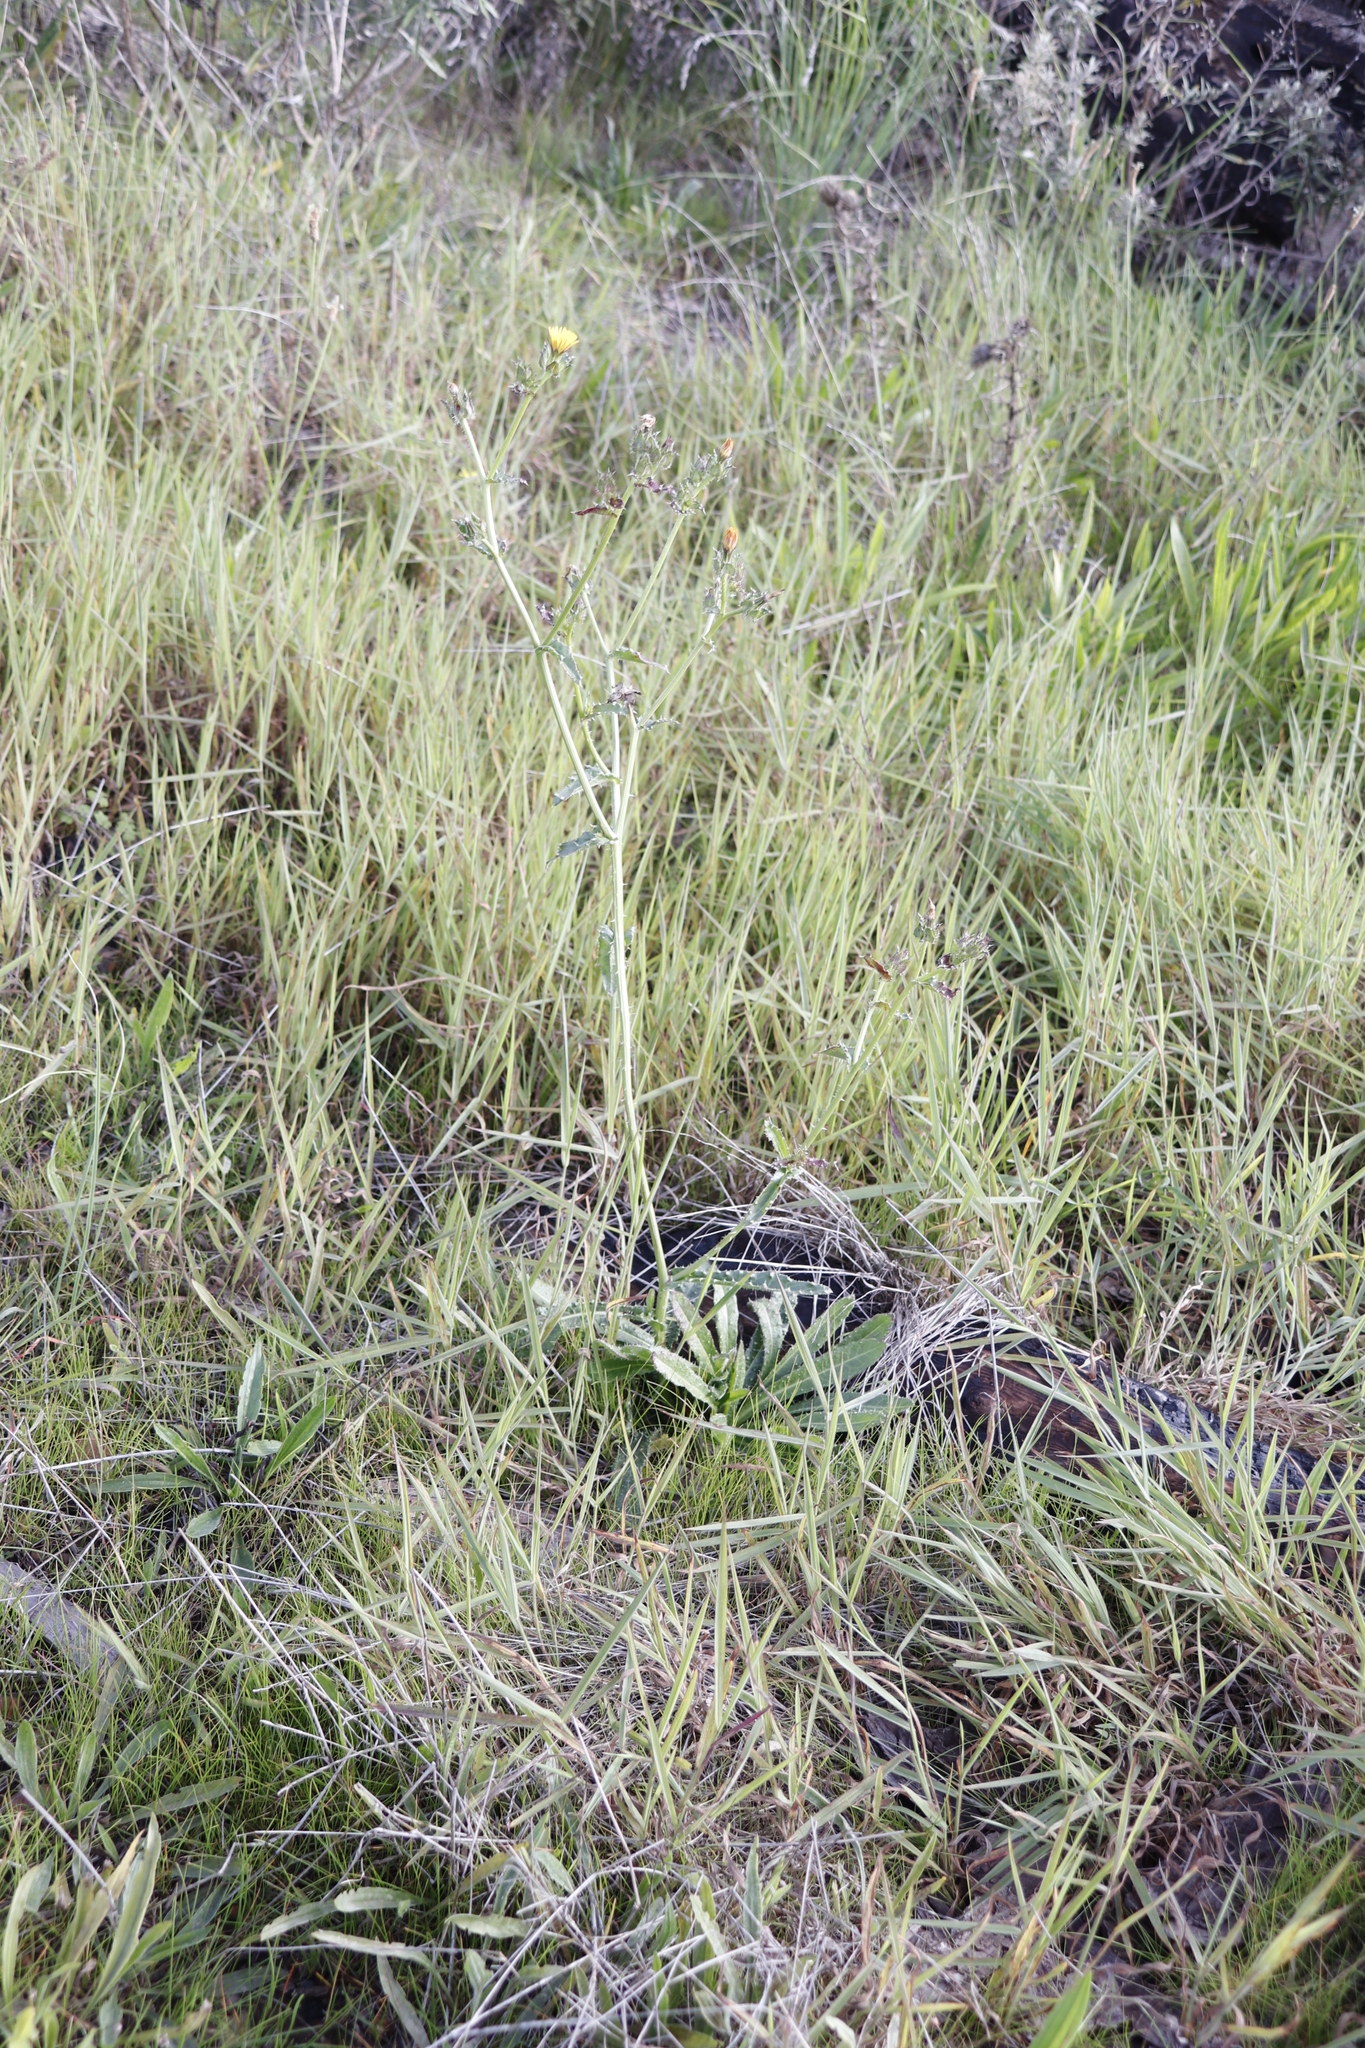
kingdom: Plantae
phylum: Tracheophyta
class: Magnoliopsida
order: Asterales
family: Asteraceae
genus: Helminthotheca
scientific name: Helminthotheca echioides
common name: Ox-tongue
